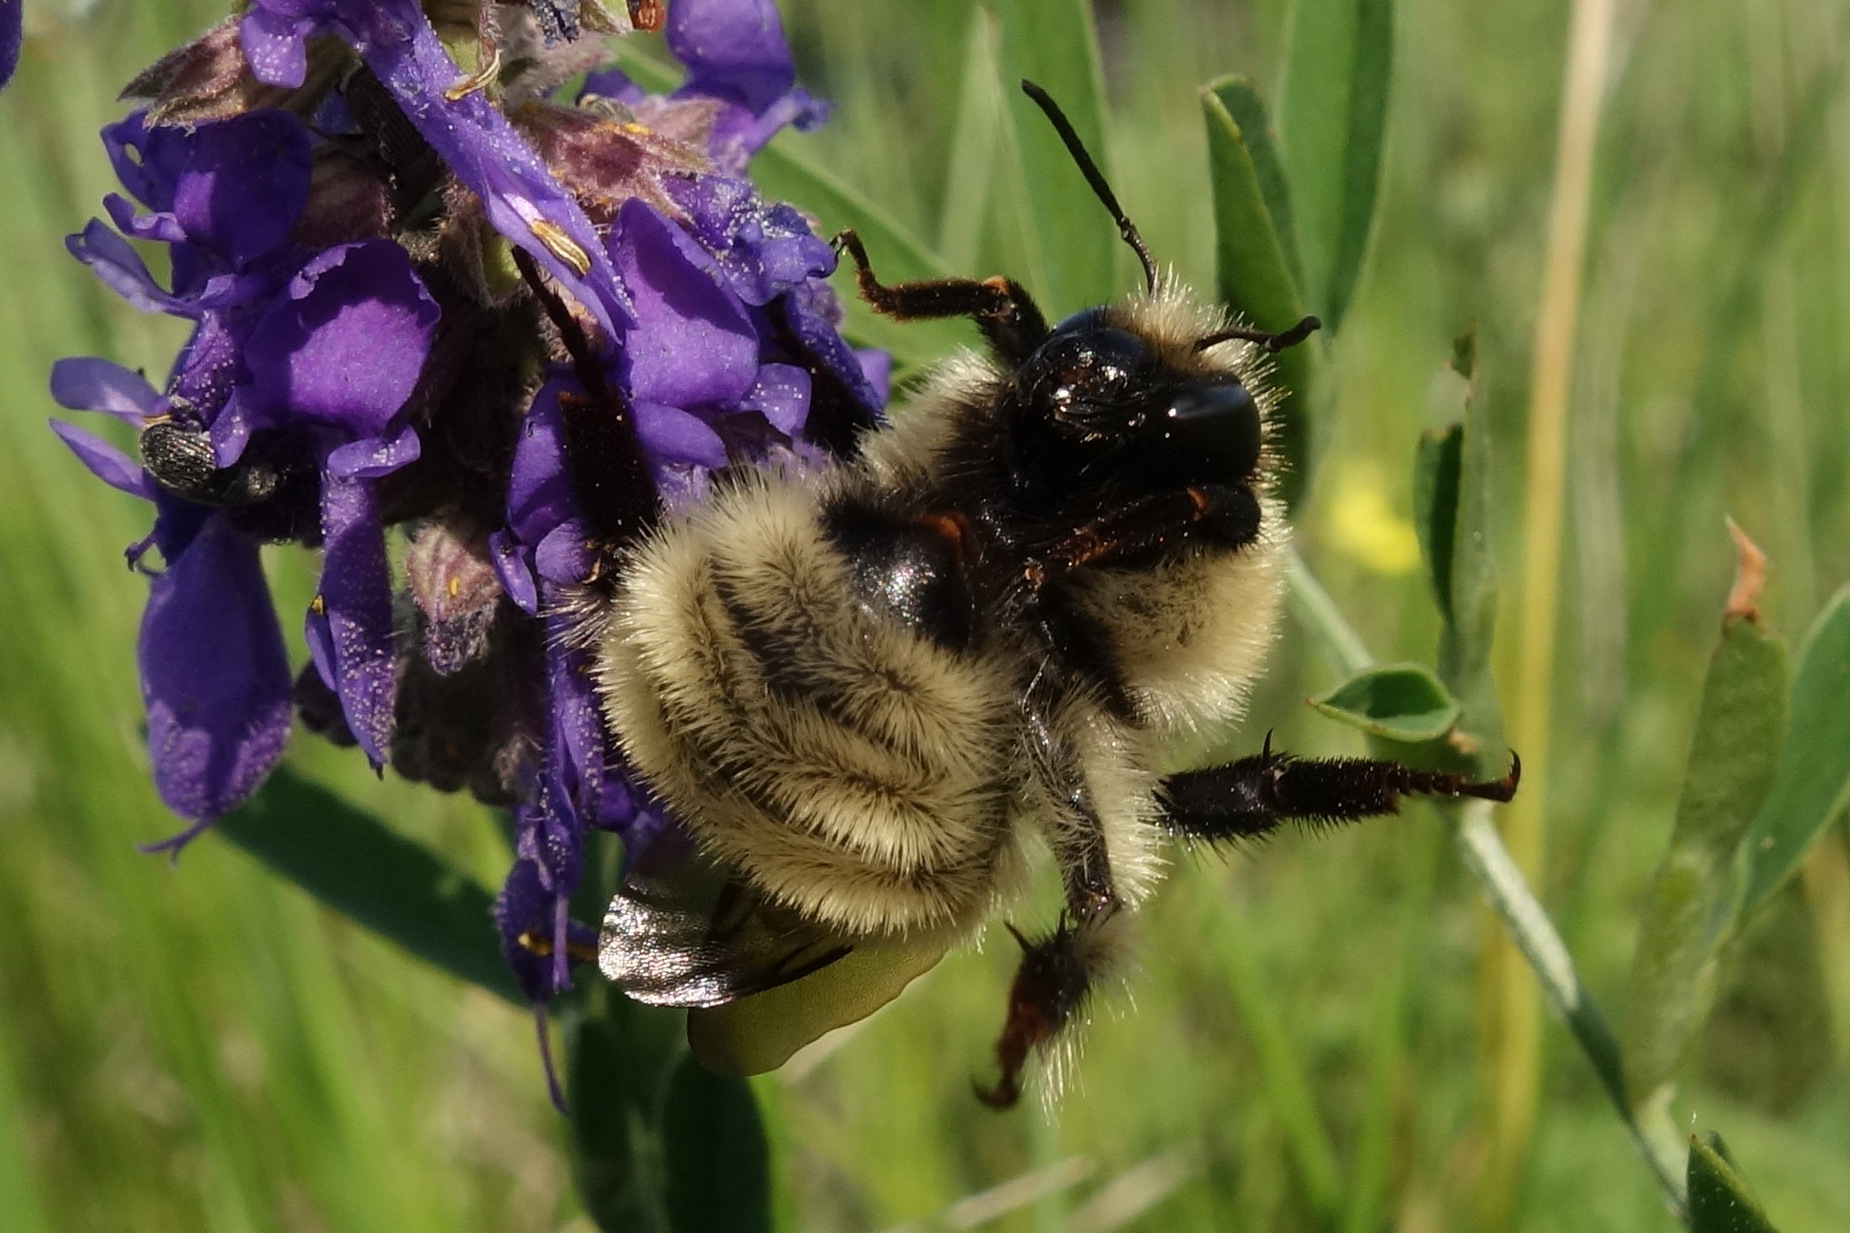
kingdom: Animalia
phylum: Arthropoda
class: Insecta
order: Hymenoptera
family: Apidae
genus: Bombus
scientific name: Bombus laesus
